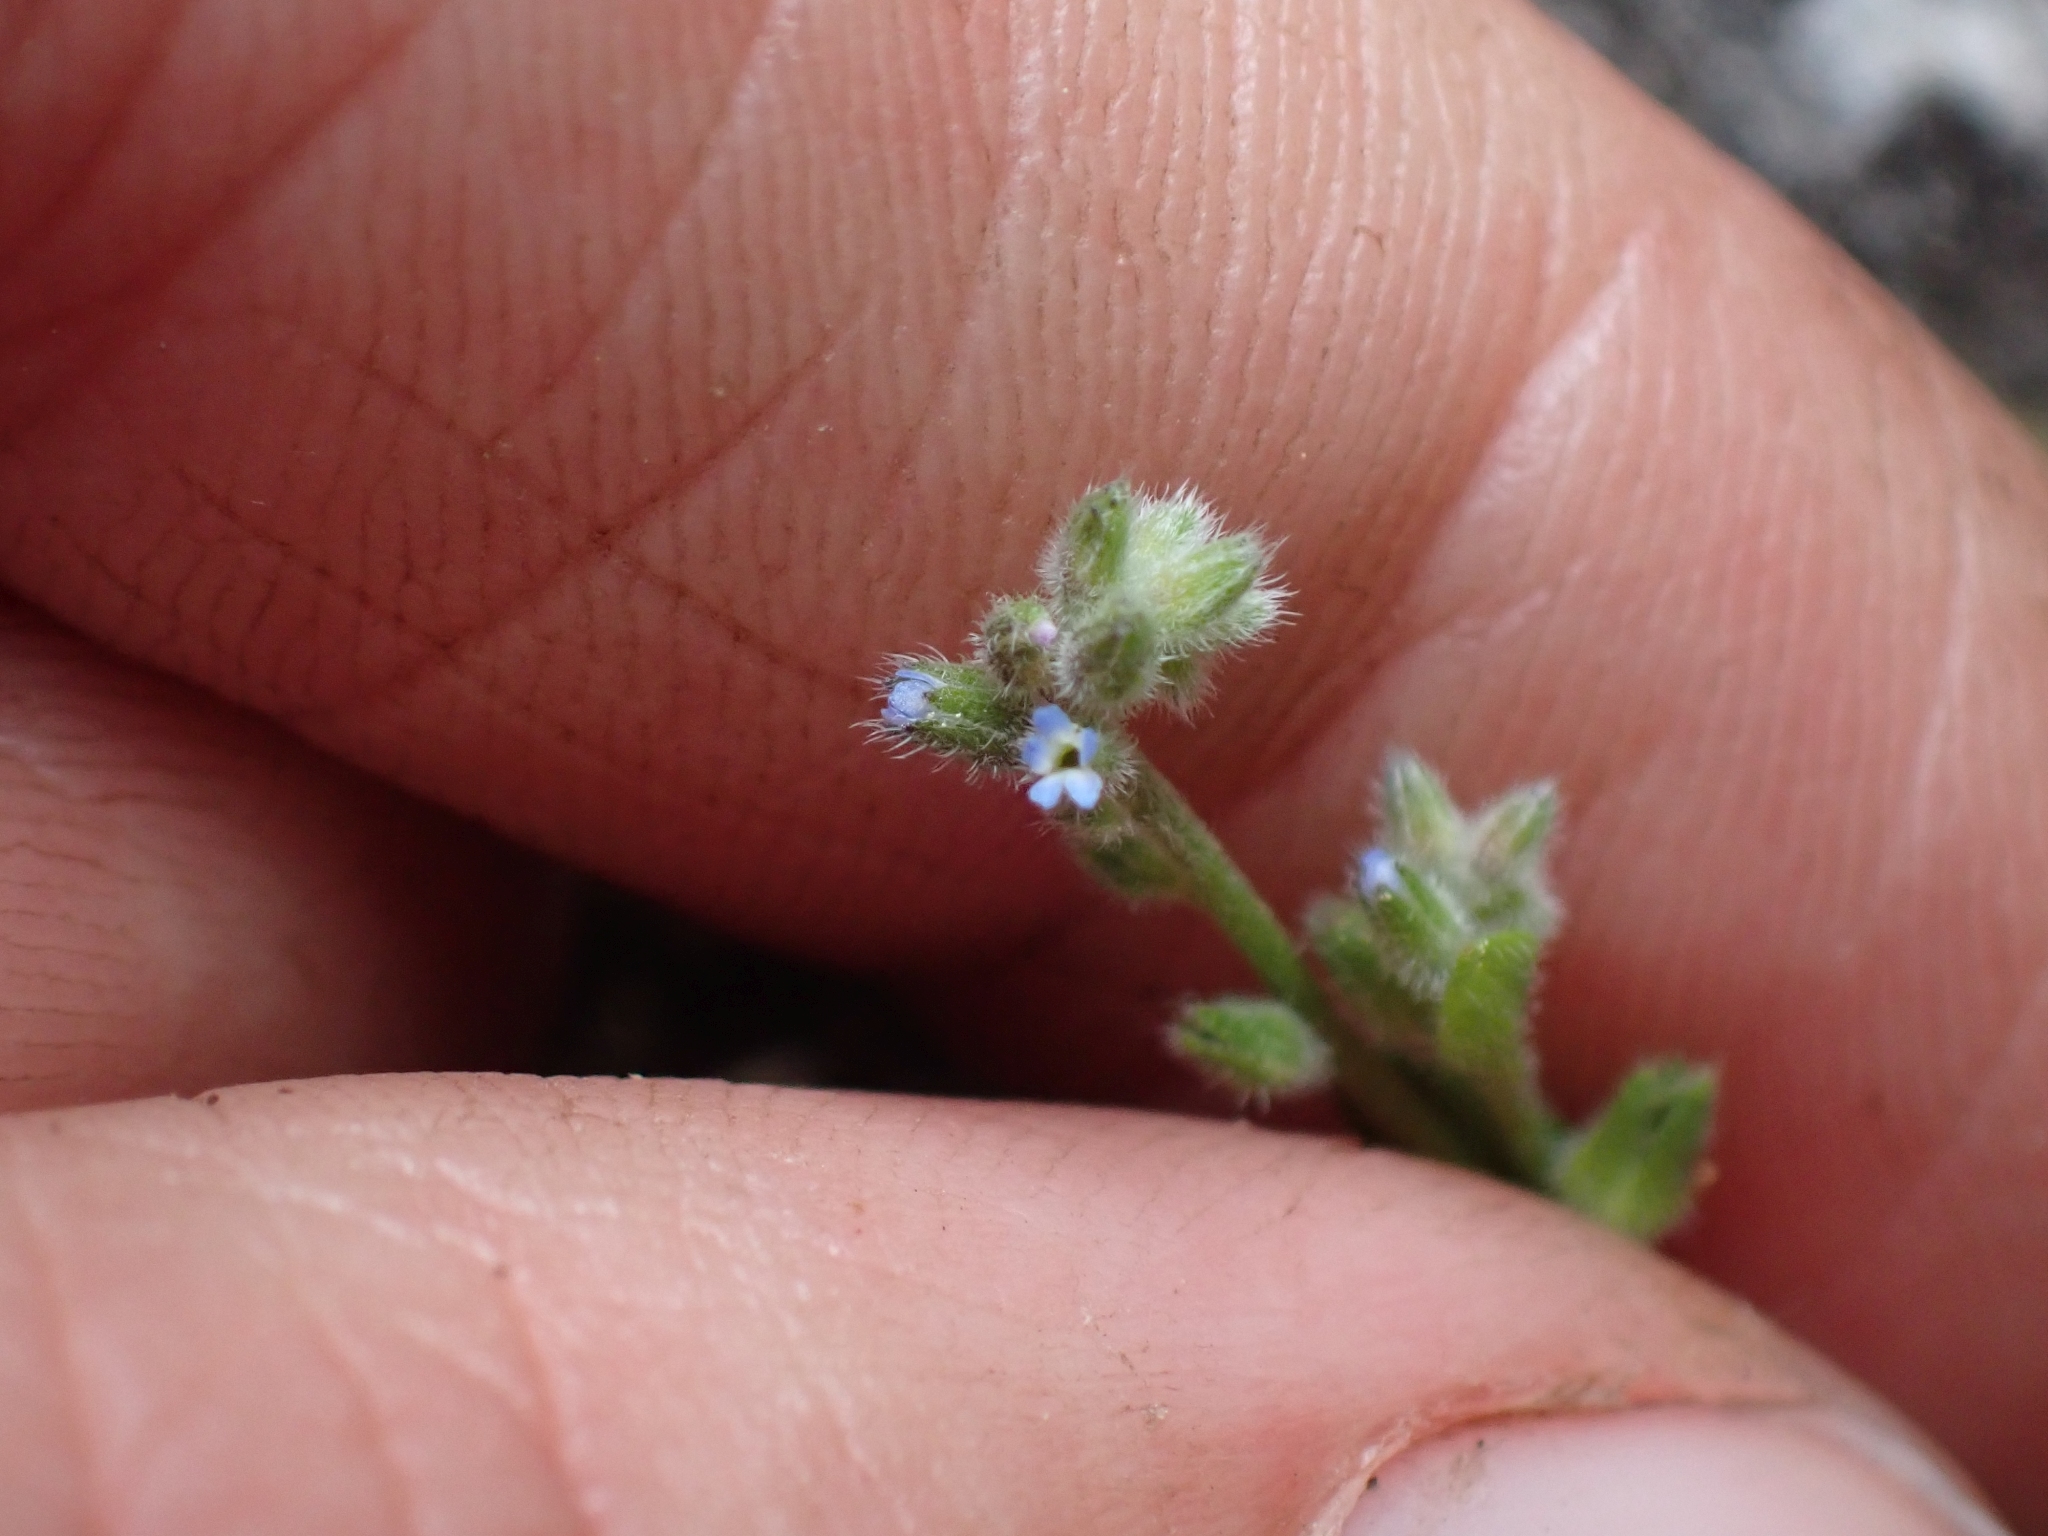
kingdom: Plantae
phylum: Tracheophyta
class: Magnoliopsida
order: Boraginales
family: Boraginaceae
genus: Myosotis
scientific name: Myosotis stricta
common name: Strict forget-me-not
